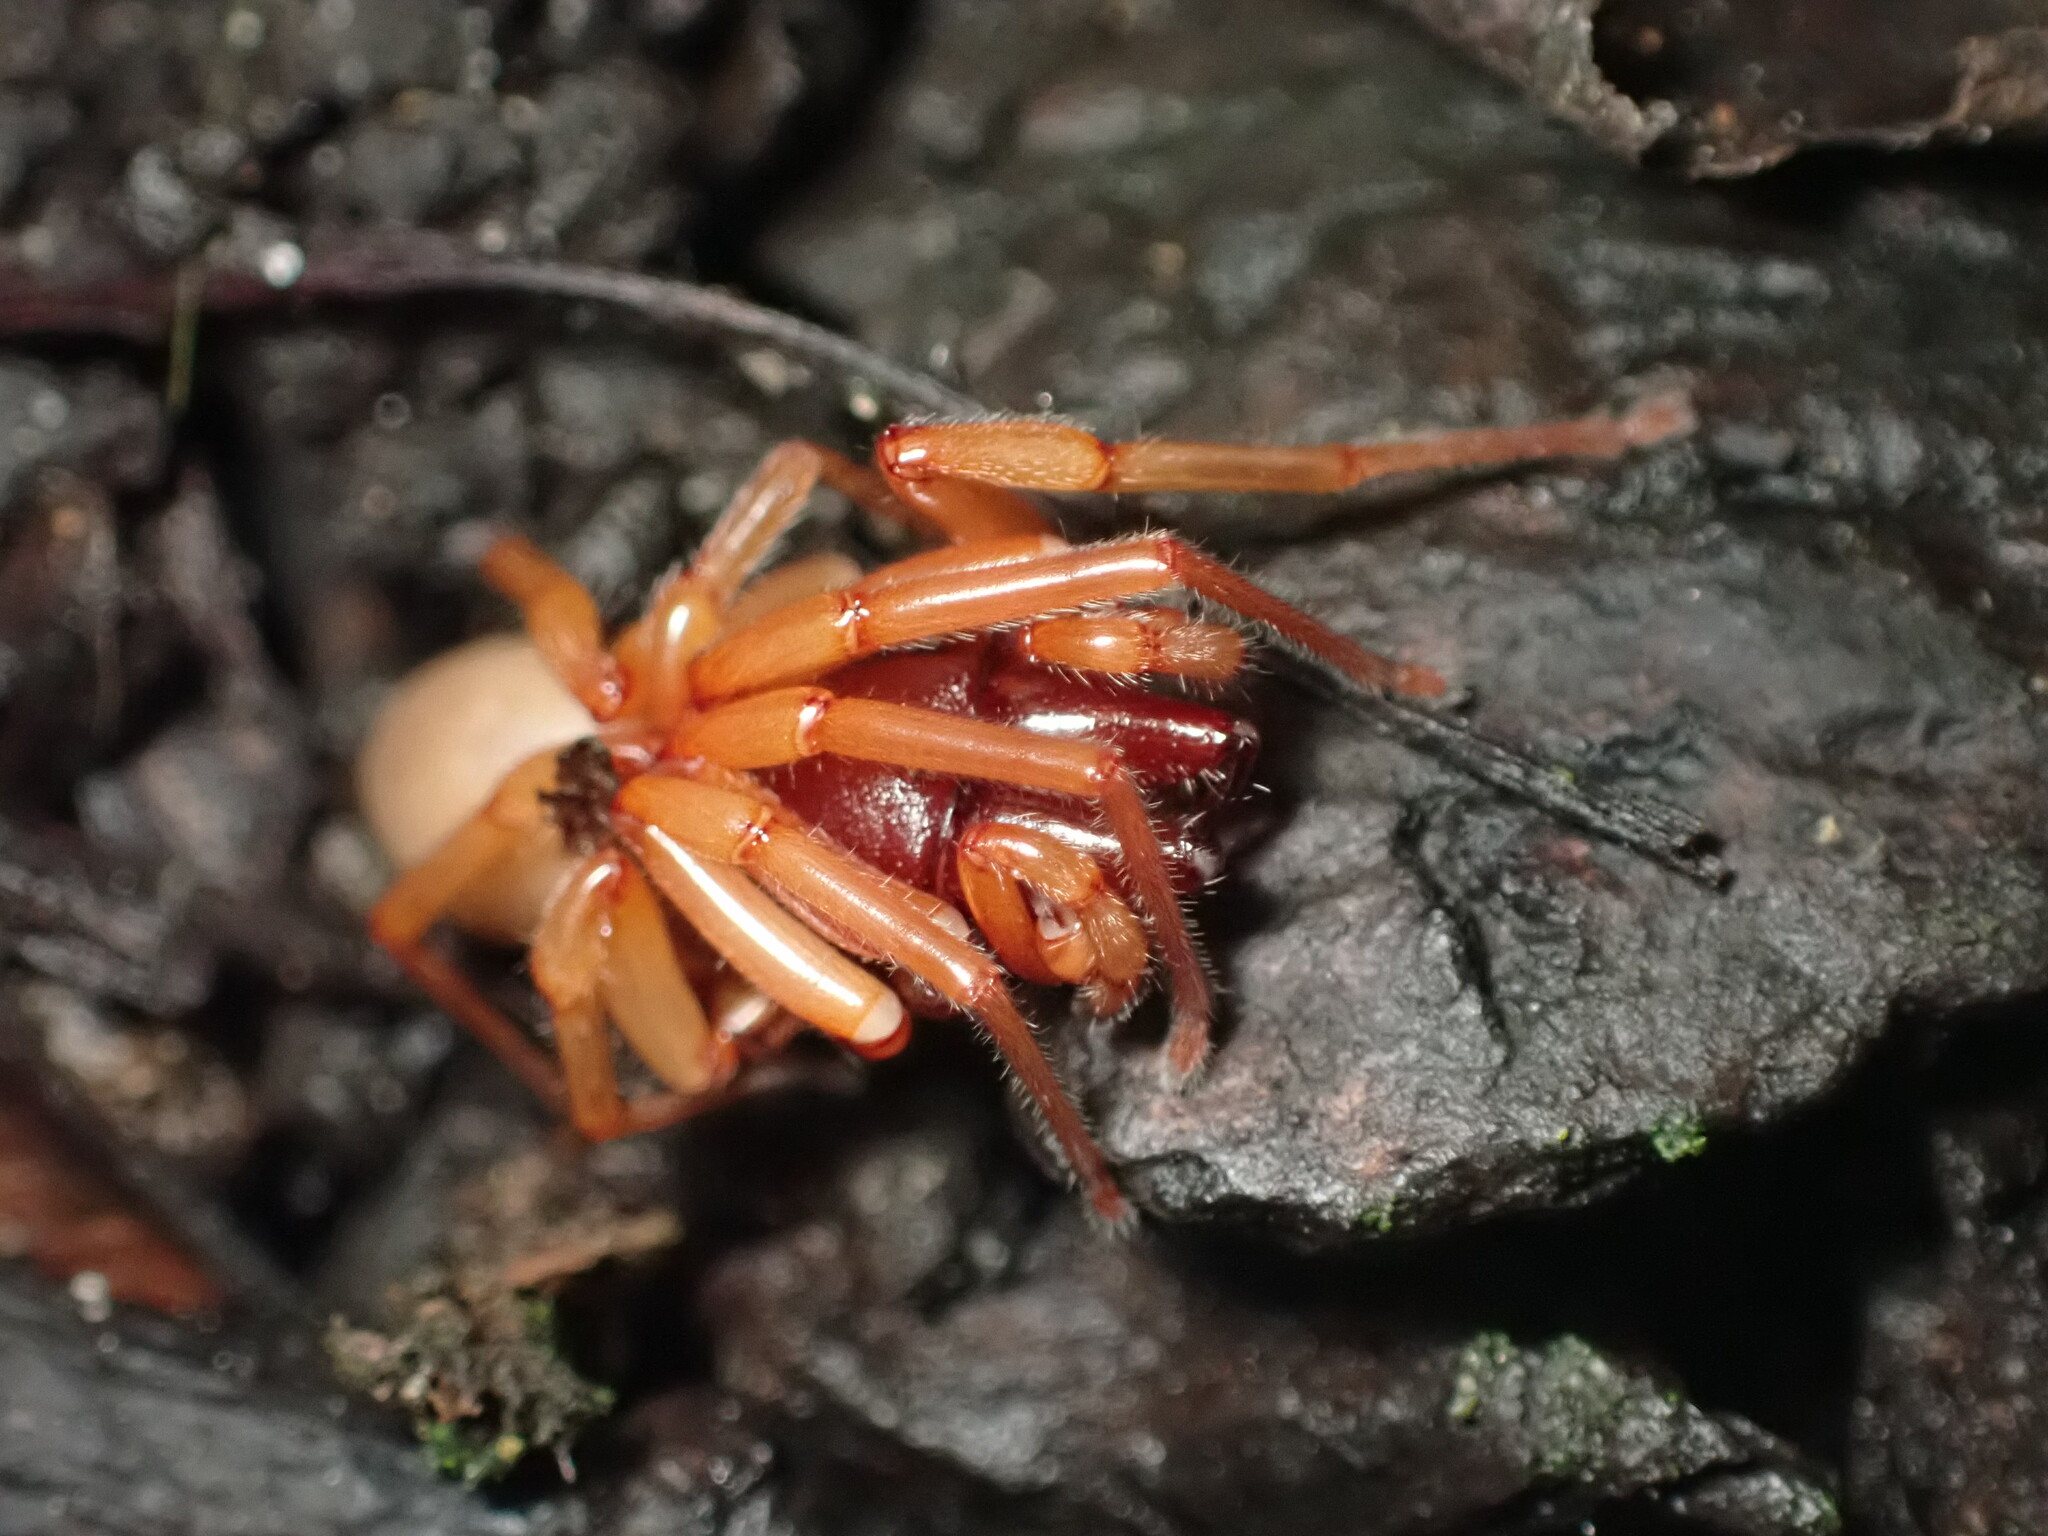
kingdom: Animalia
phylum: Arthropoda
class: Arachnida
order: Araneae
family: Dysderidae
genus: Dysdera
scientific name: Dysdera crocata
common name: Woodlouse spider
